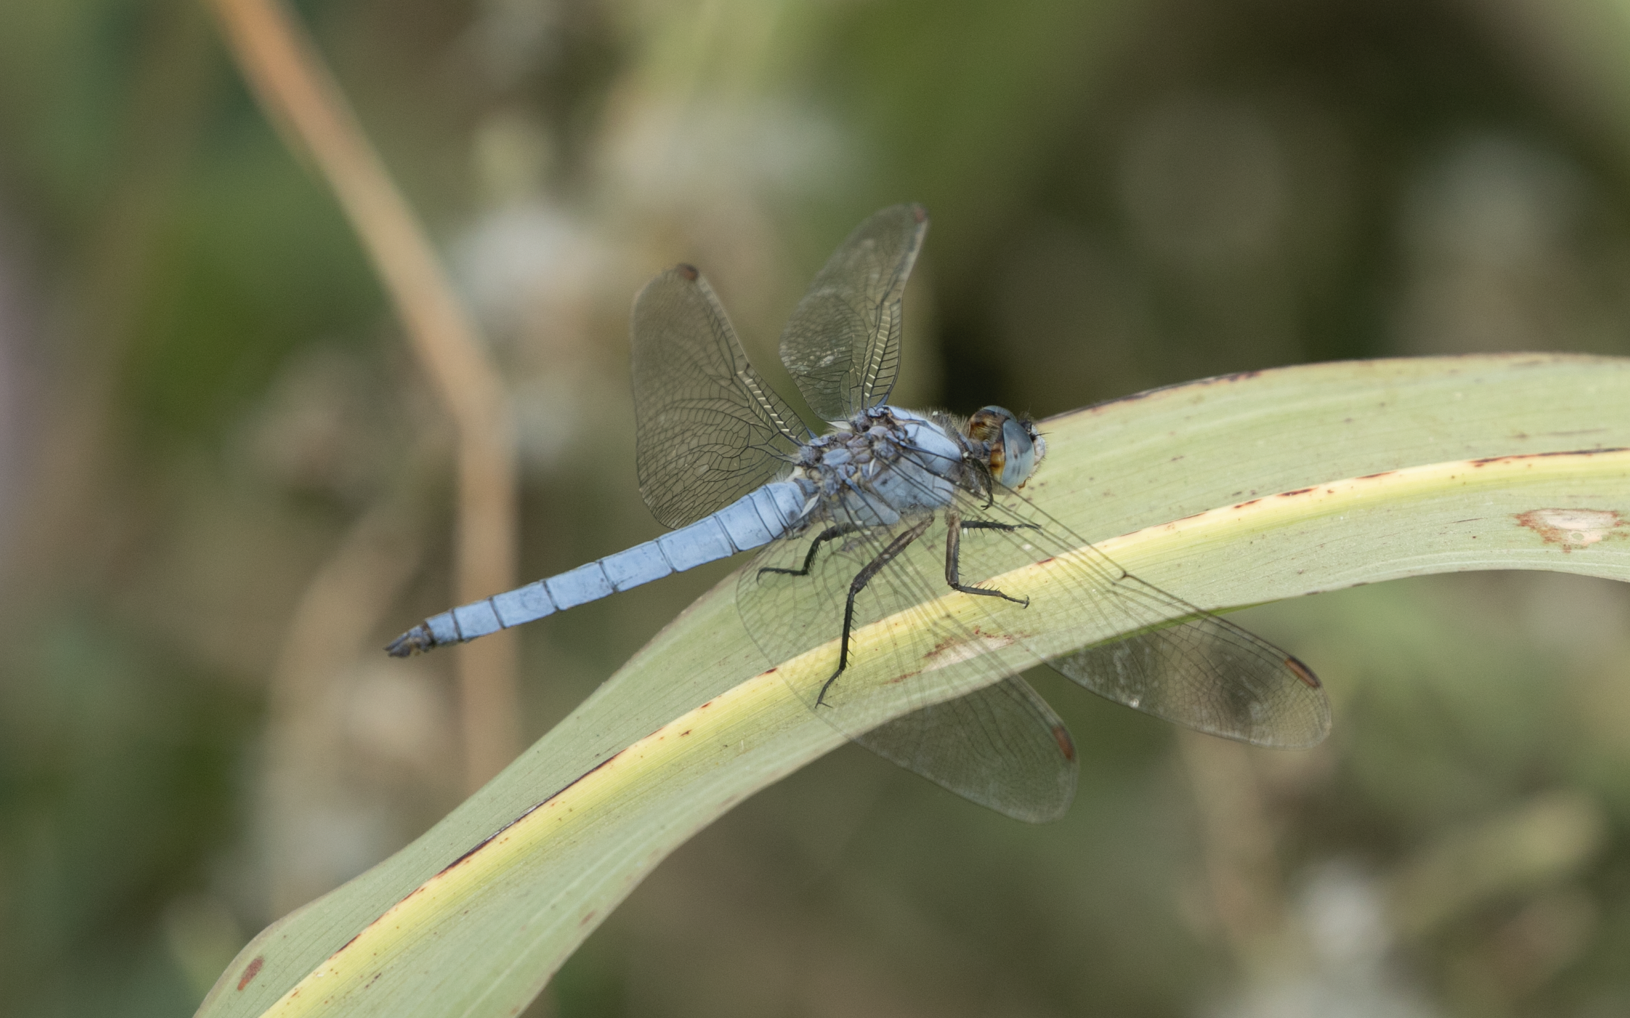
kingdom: Animalia
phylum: Arthropoda
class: Insecta
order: Odonata
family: Libellulidae
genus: Orthetrum
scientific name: Orthetrum brunneum
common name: Southern skimmer
